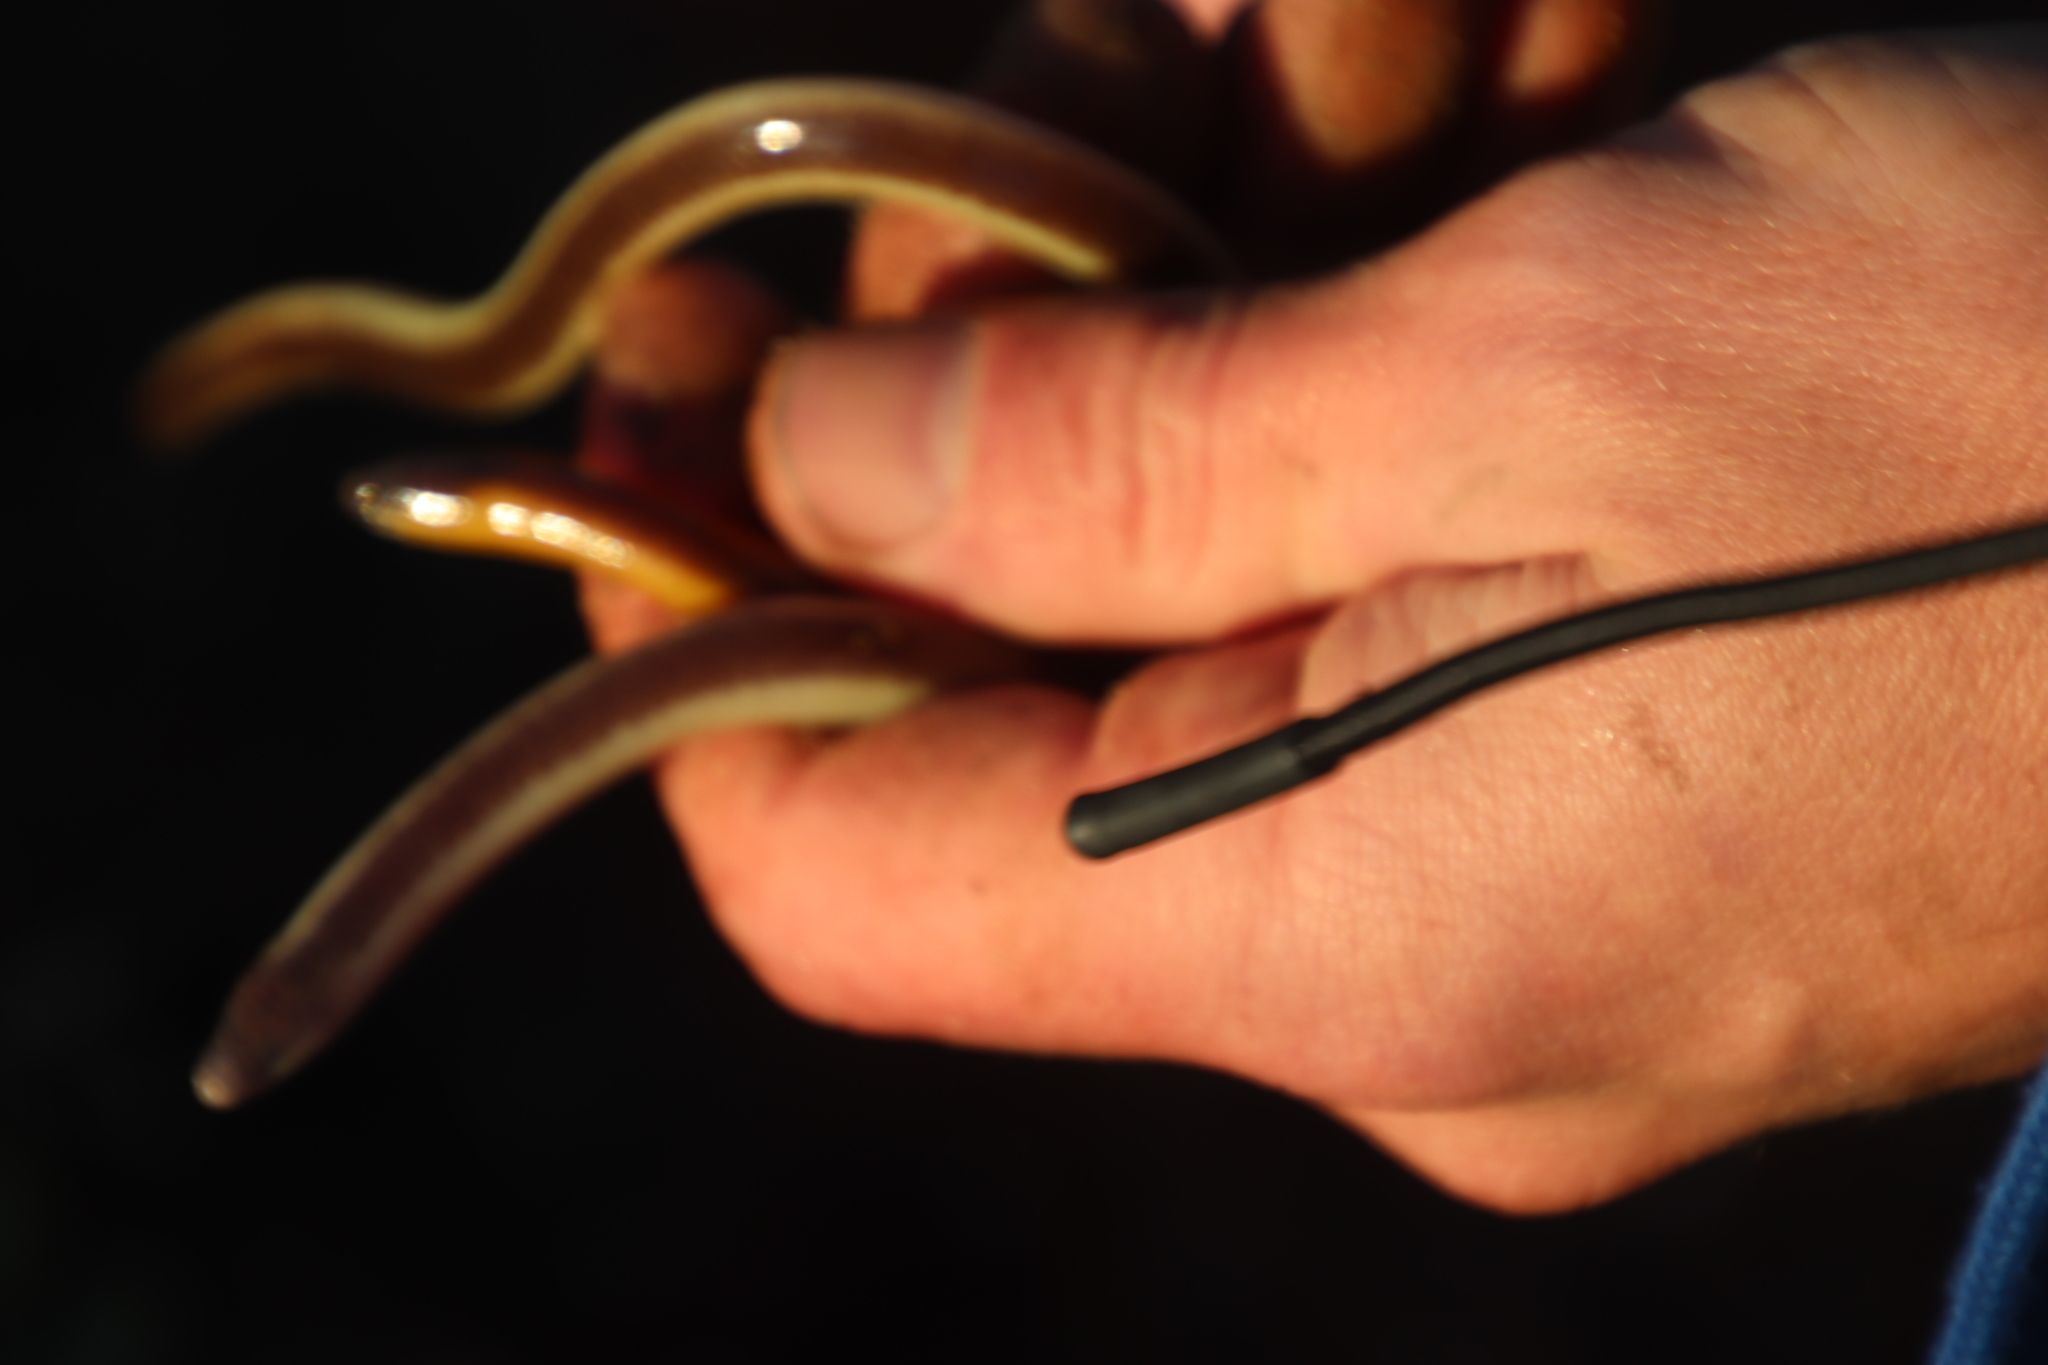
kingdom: Animalia
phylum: Chordata
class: Squamata
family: Scincidae
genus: Acontias
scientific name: Acontias meleagris
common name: Cape legless skink
